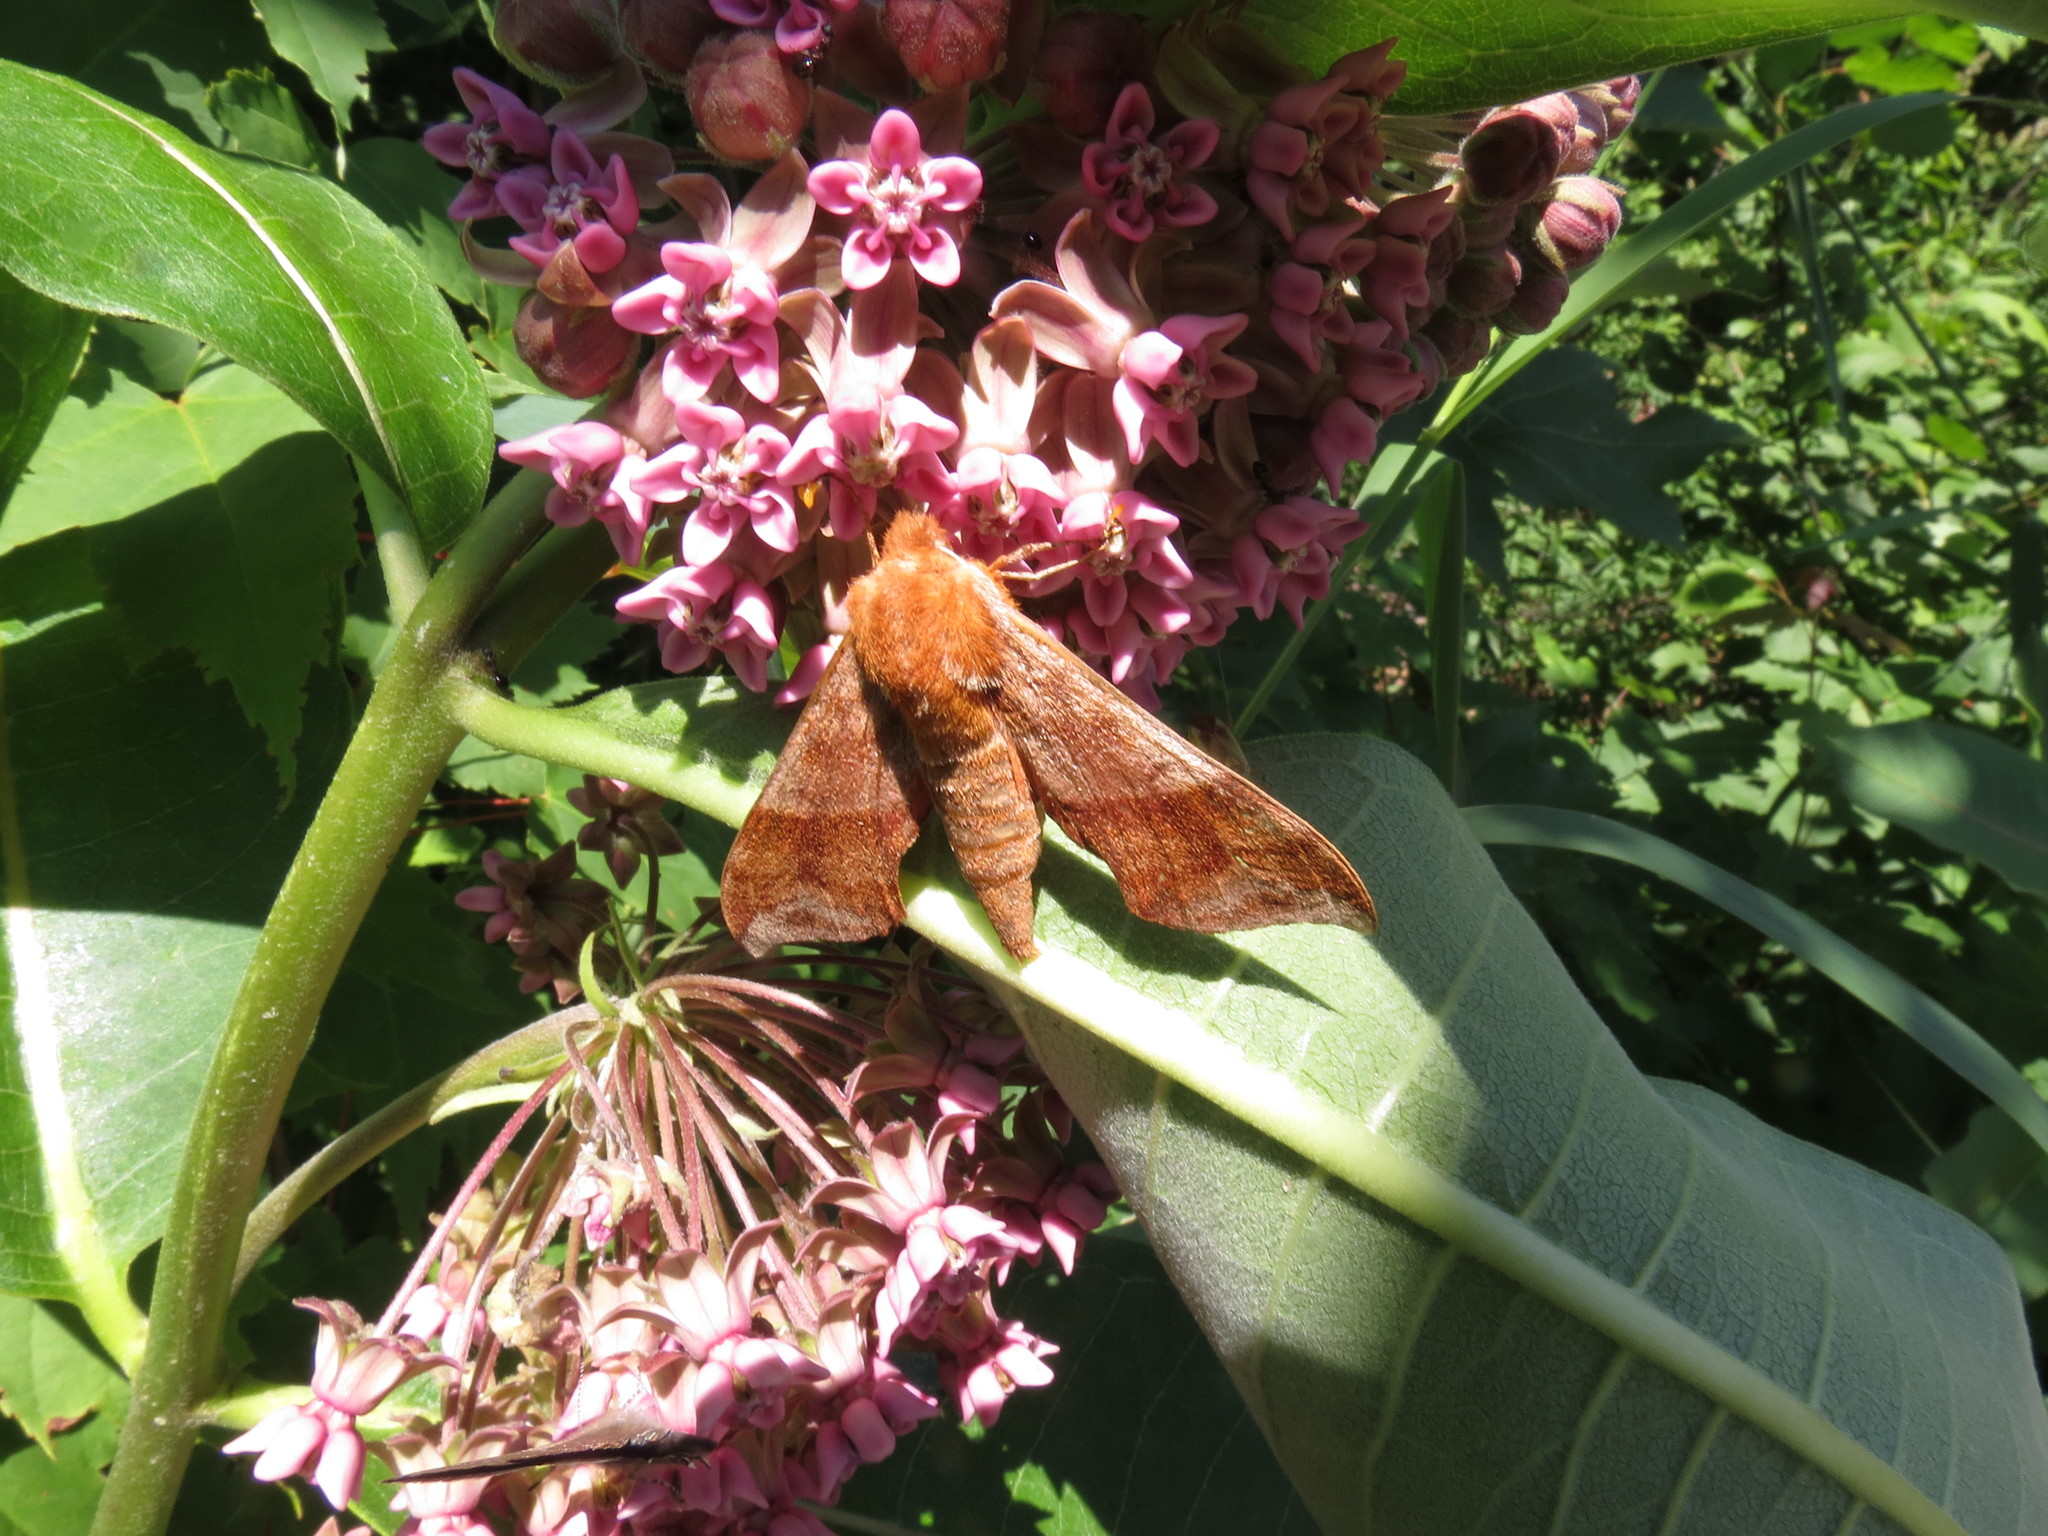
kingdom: Animalia
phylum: Arthropoda
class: Insecta
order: Lepidoptera
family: Sphingidae
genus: Darapsa
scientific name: Darapsa choerilus
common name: Azalea sphinx
